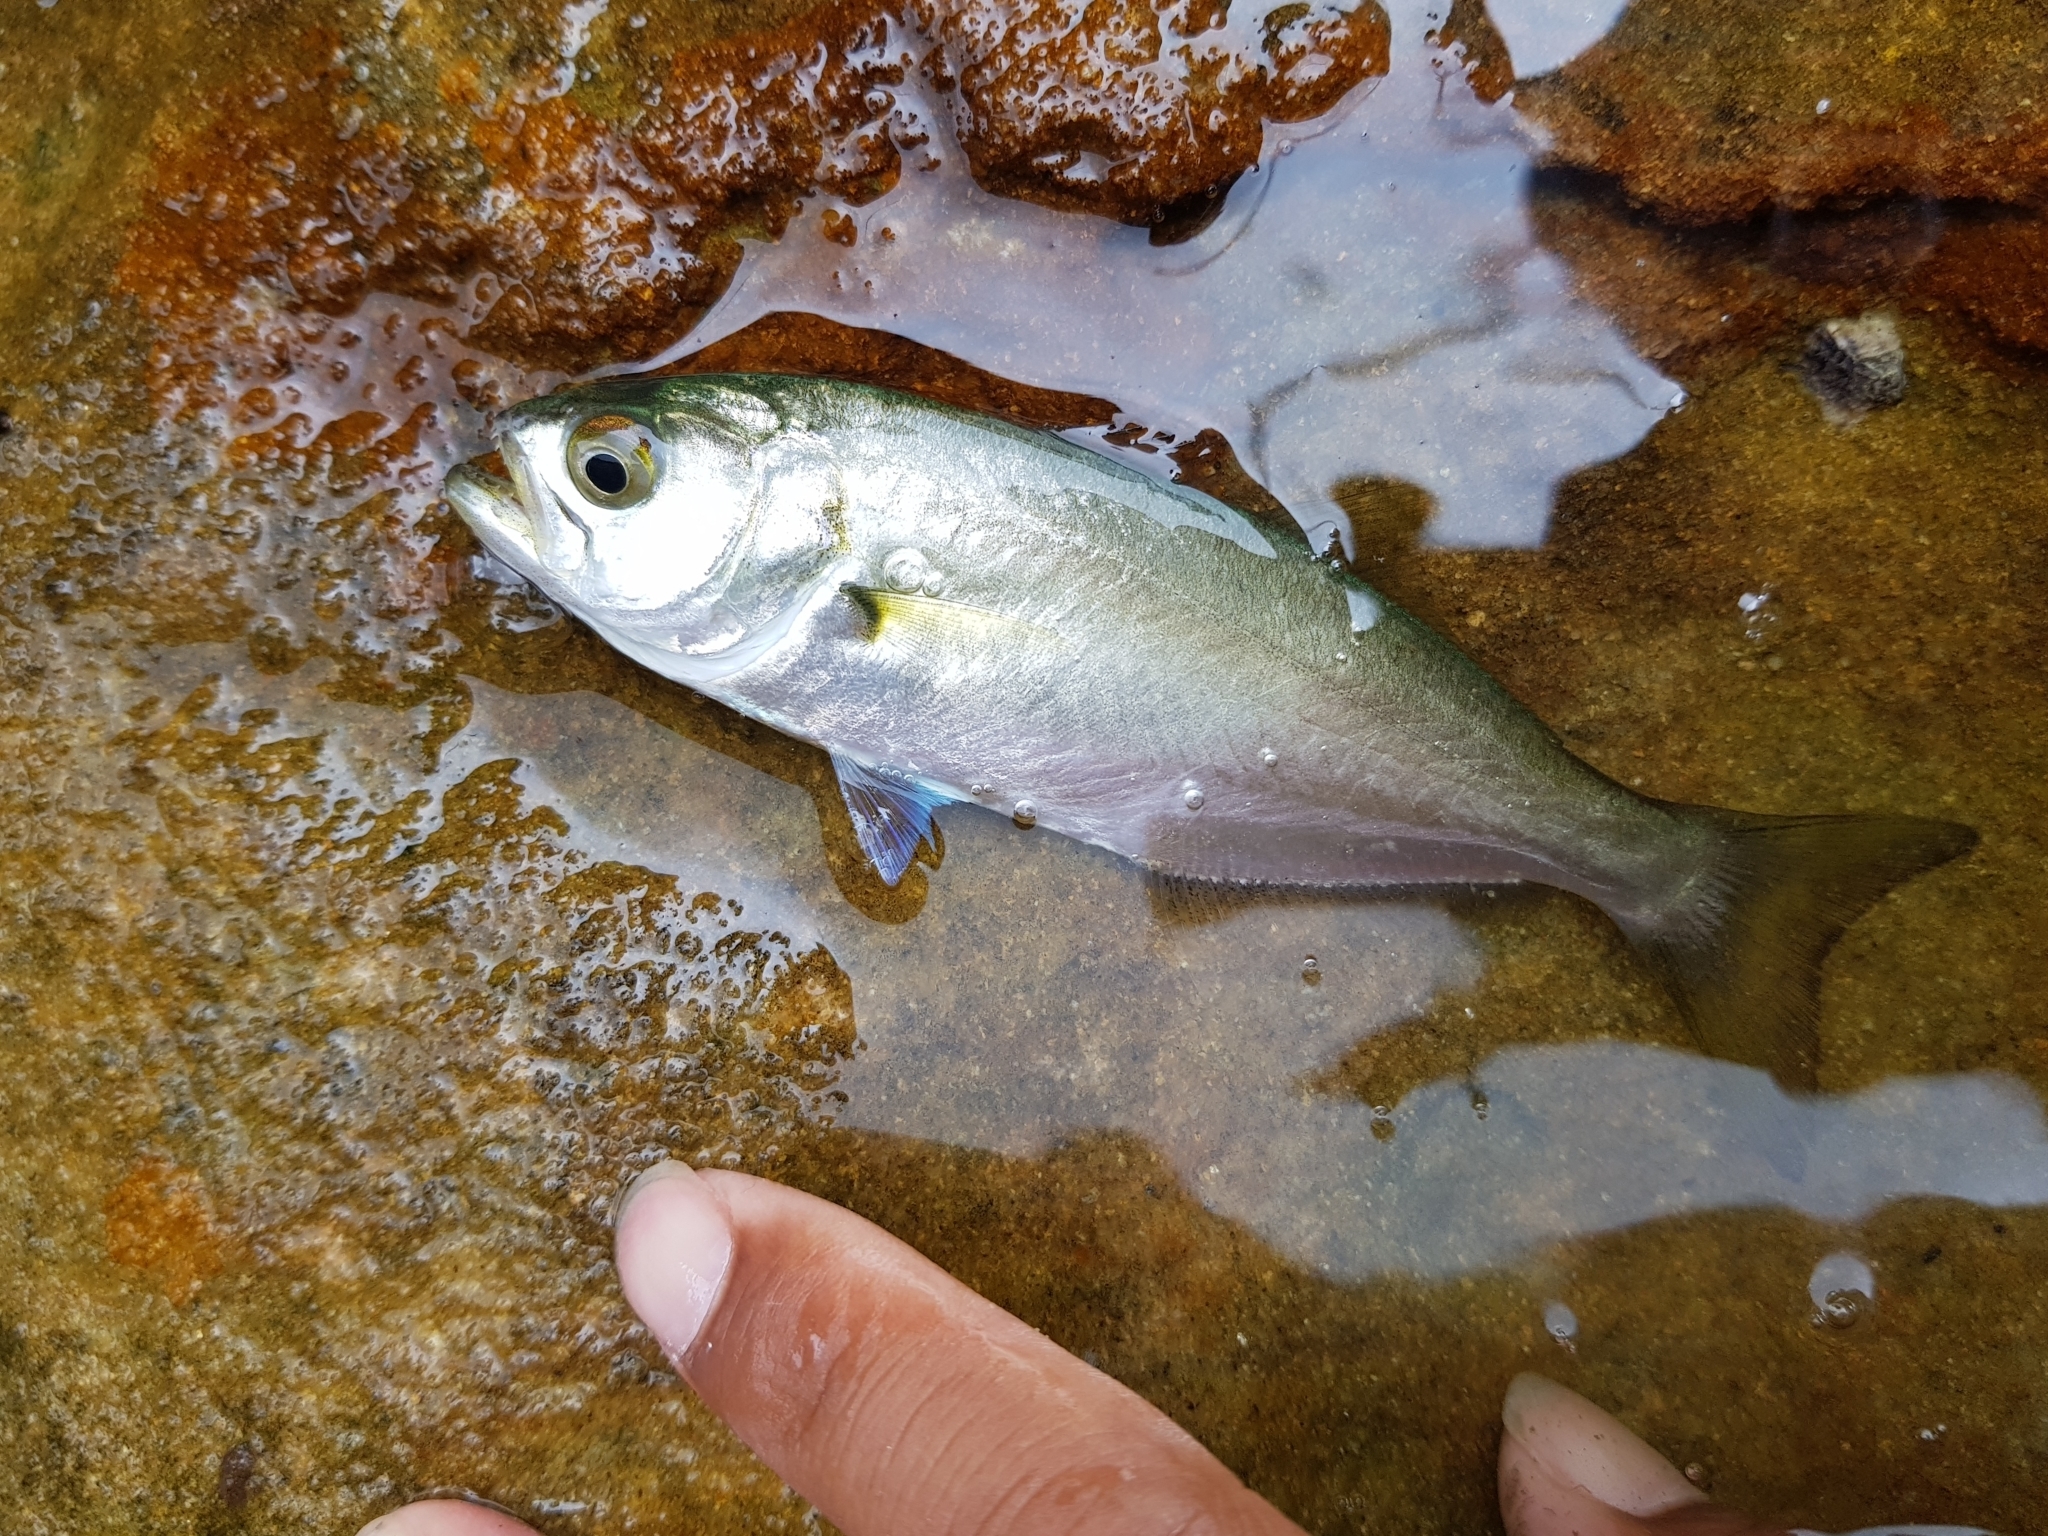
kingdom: Animalia
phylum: Chordata
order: Perciformes
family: Pomatomidae
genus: Pomatomus
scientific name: Pomatomus saltatrix
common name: Bluefish
